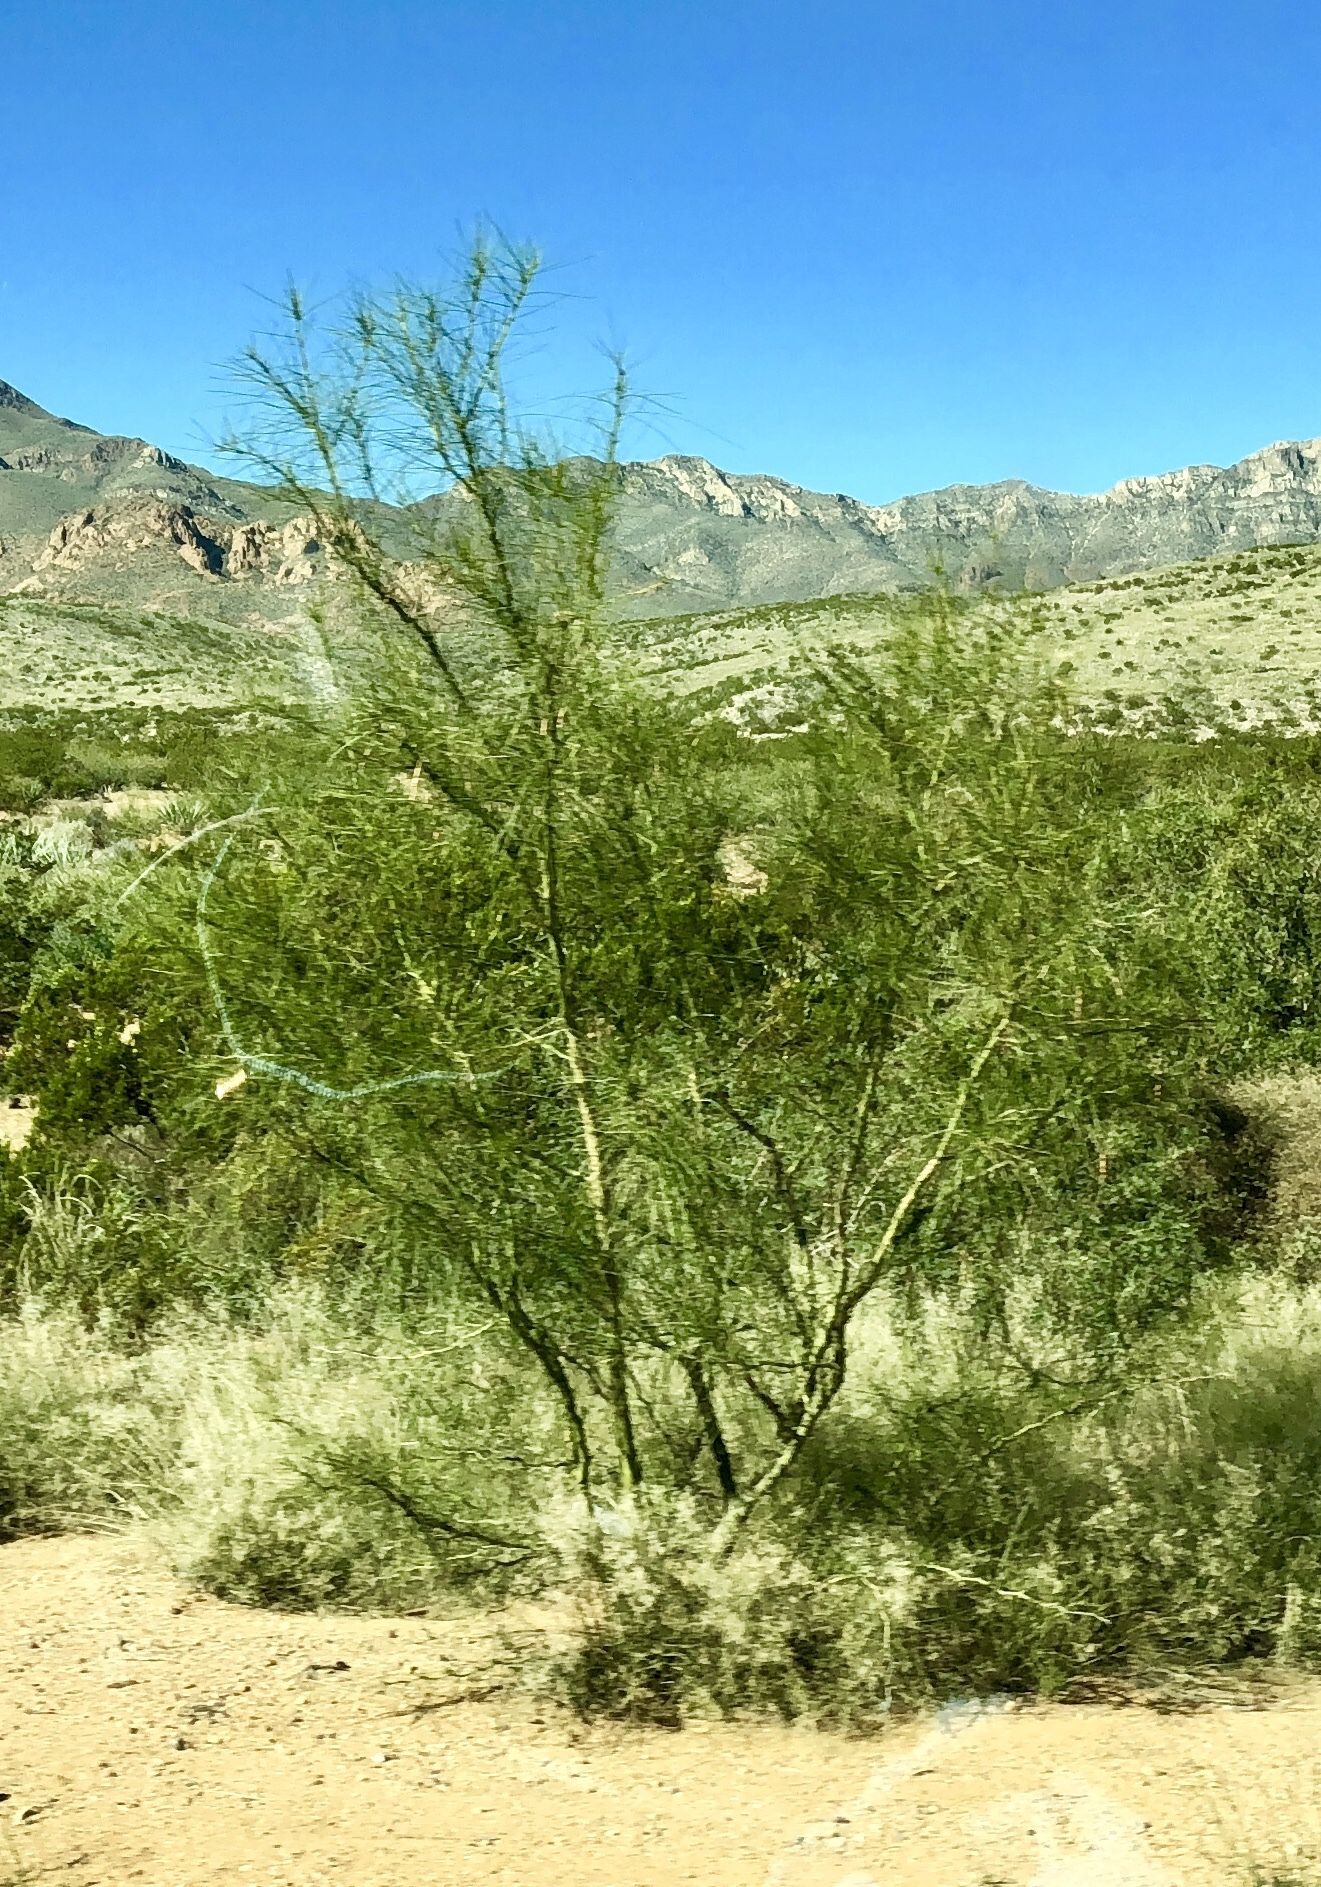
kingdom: Plantae
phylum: Tracheophyta
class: Magnoliopsida
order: Fabales
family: Fabaceae
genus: Parkinsonia
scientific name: Parkinsonia aculeata
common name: Jerusalem thorn
